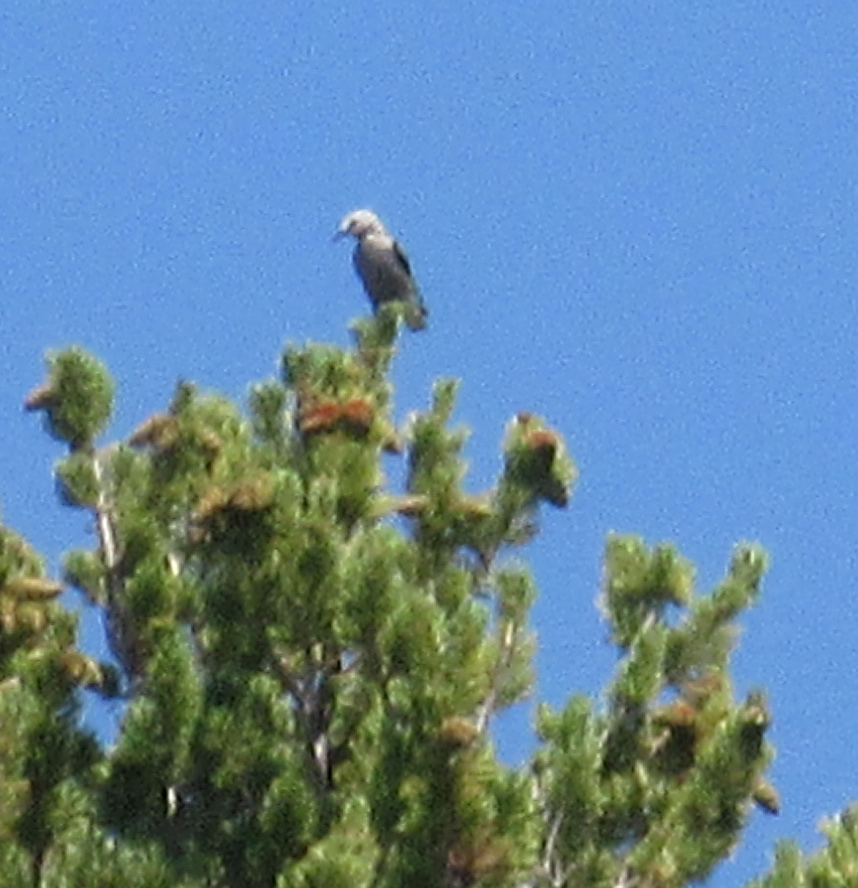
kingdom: Animalia
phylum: Chordata
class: Aves
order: Passeriformes
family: Corvidae
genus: Nucifraga
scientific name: Nucifraga columbiana
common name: Clark's nutcracker
